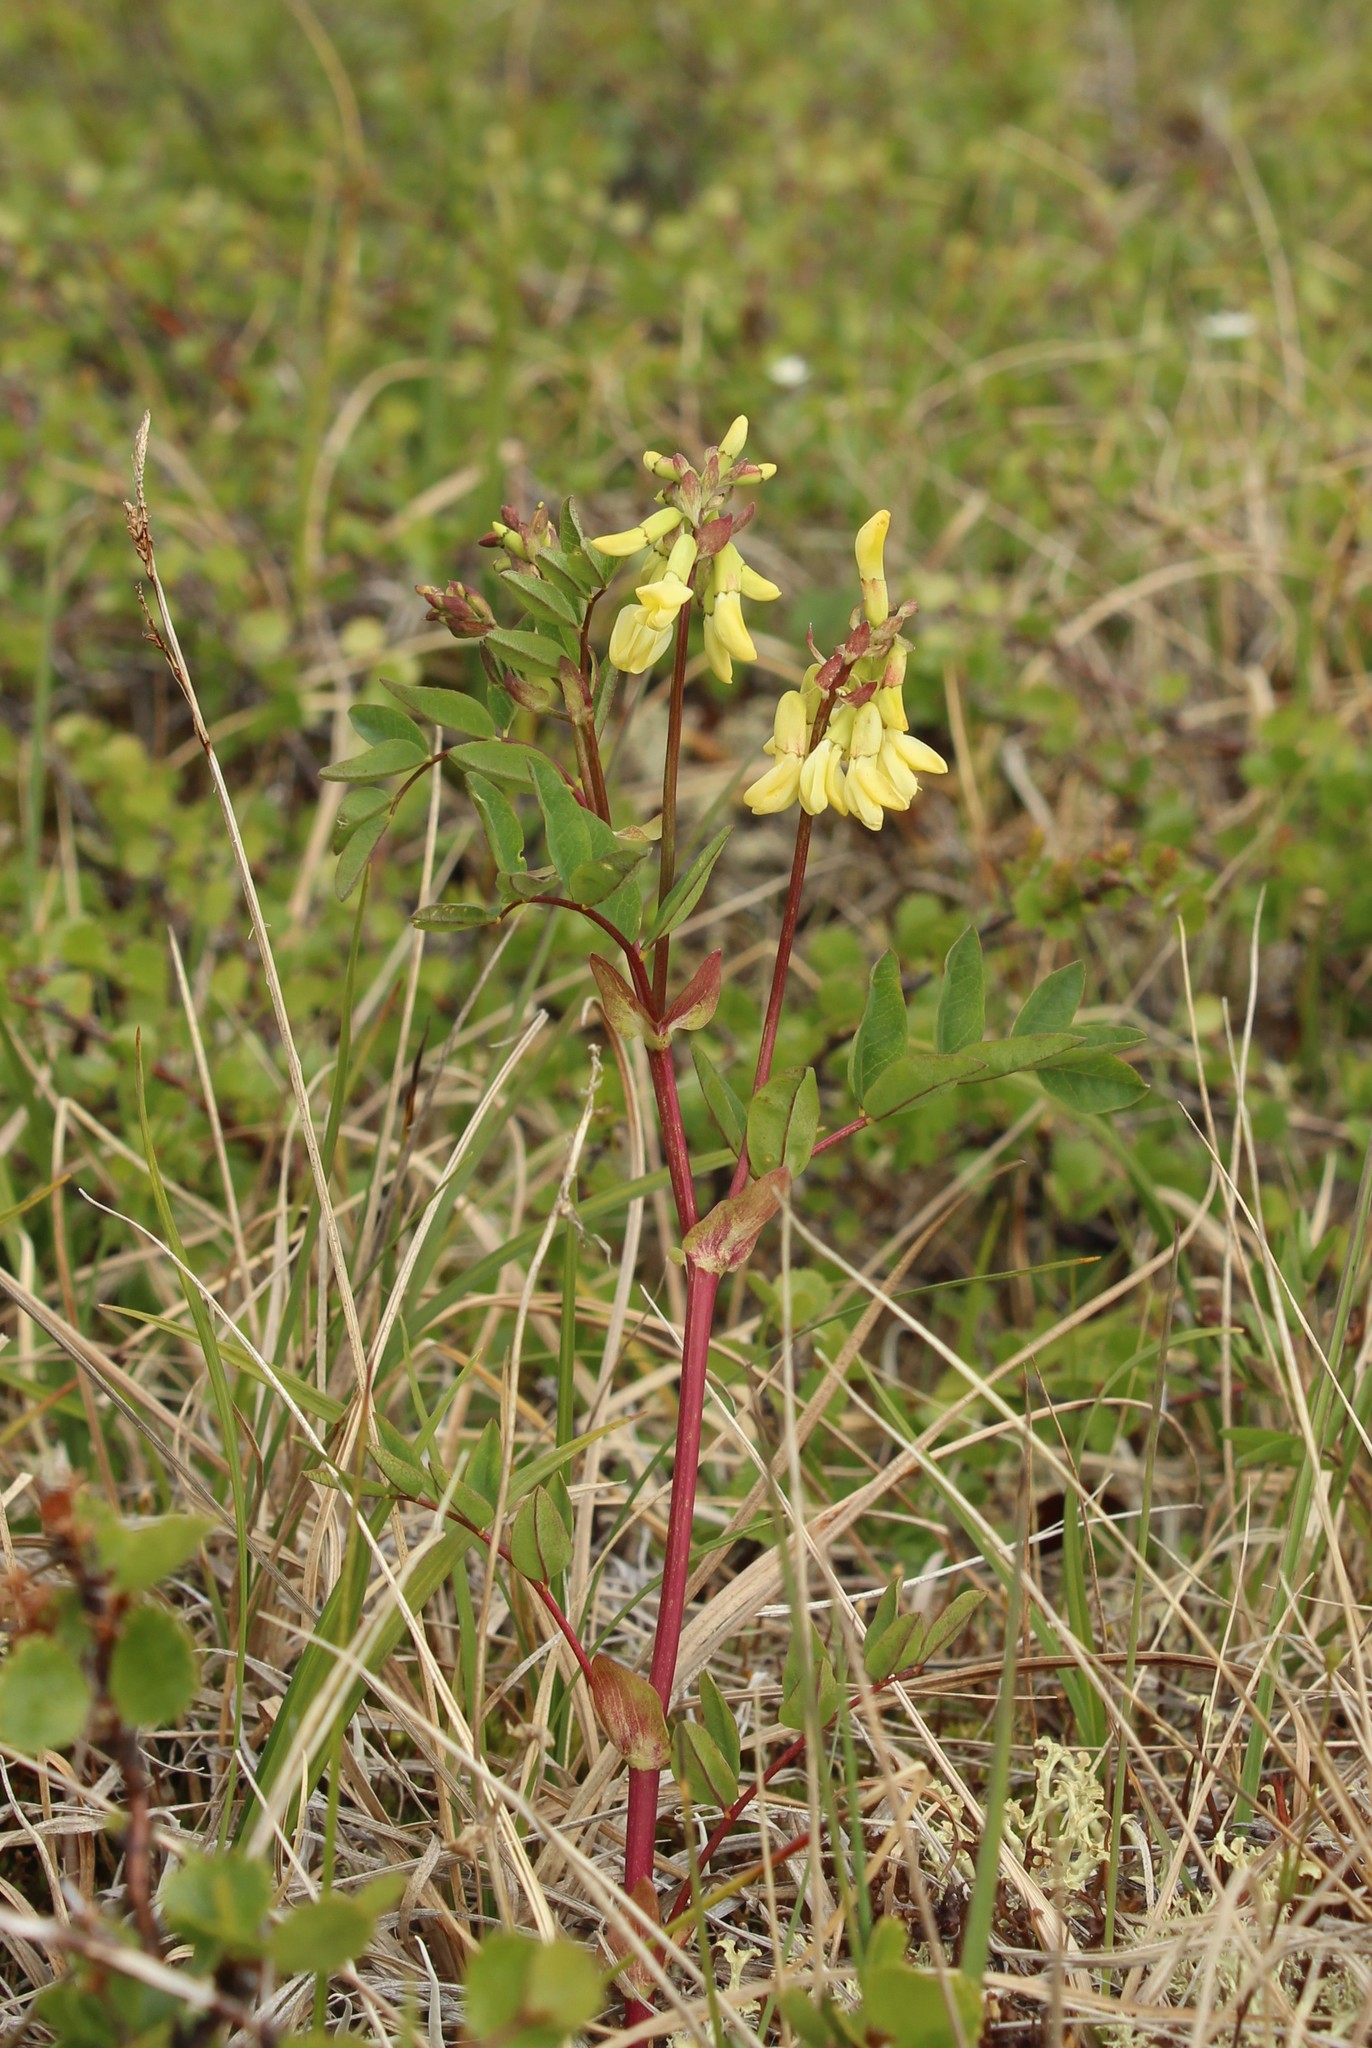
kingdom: Plantae
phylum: Tracheophyta
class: Magnoliopsida
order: Fabales
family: Fabaceae
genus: Astragalus
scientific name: Astragalus frigidus
